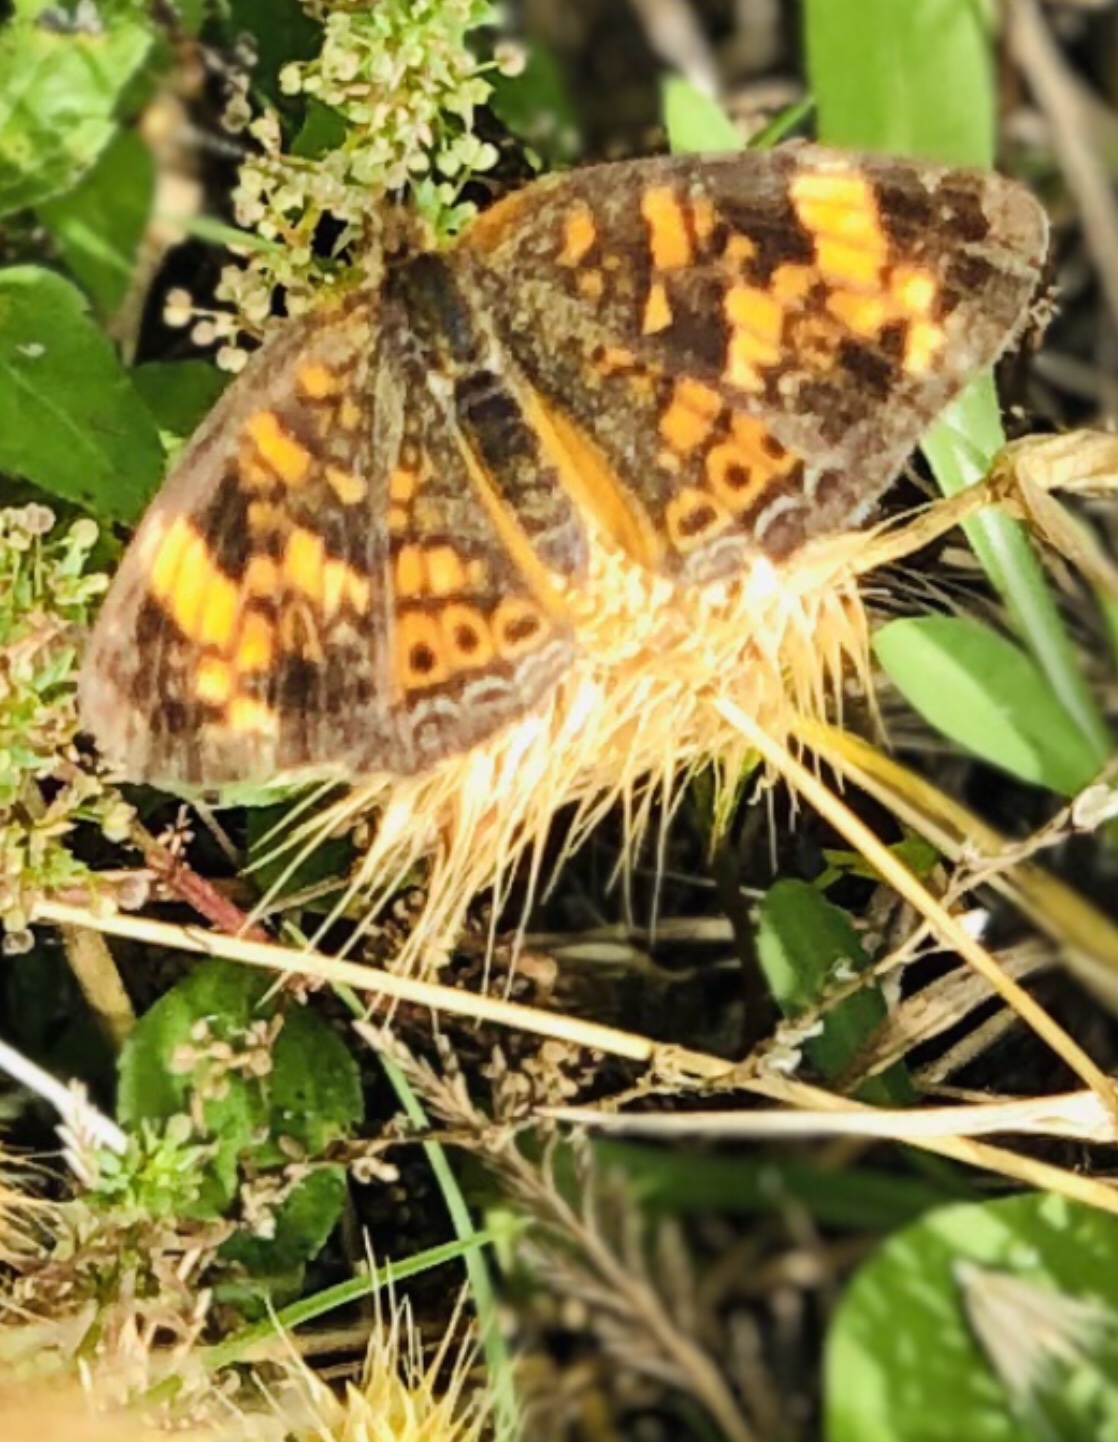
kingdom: Animalia
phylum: Arthropoda
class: Insecta
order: Lepidoptera
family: Nymphalidae
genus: Phyciodes
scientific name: Phyciodes tharos
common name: Pearl crescent
